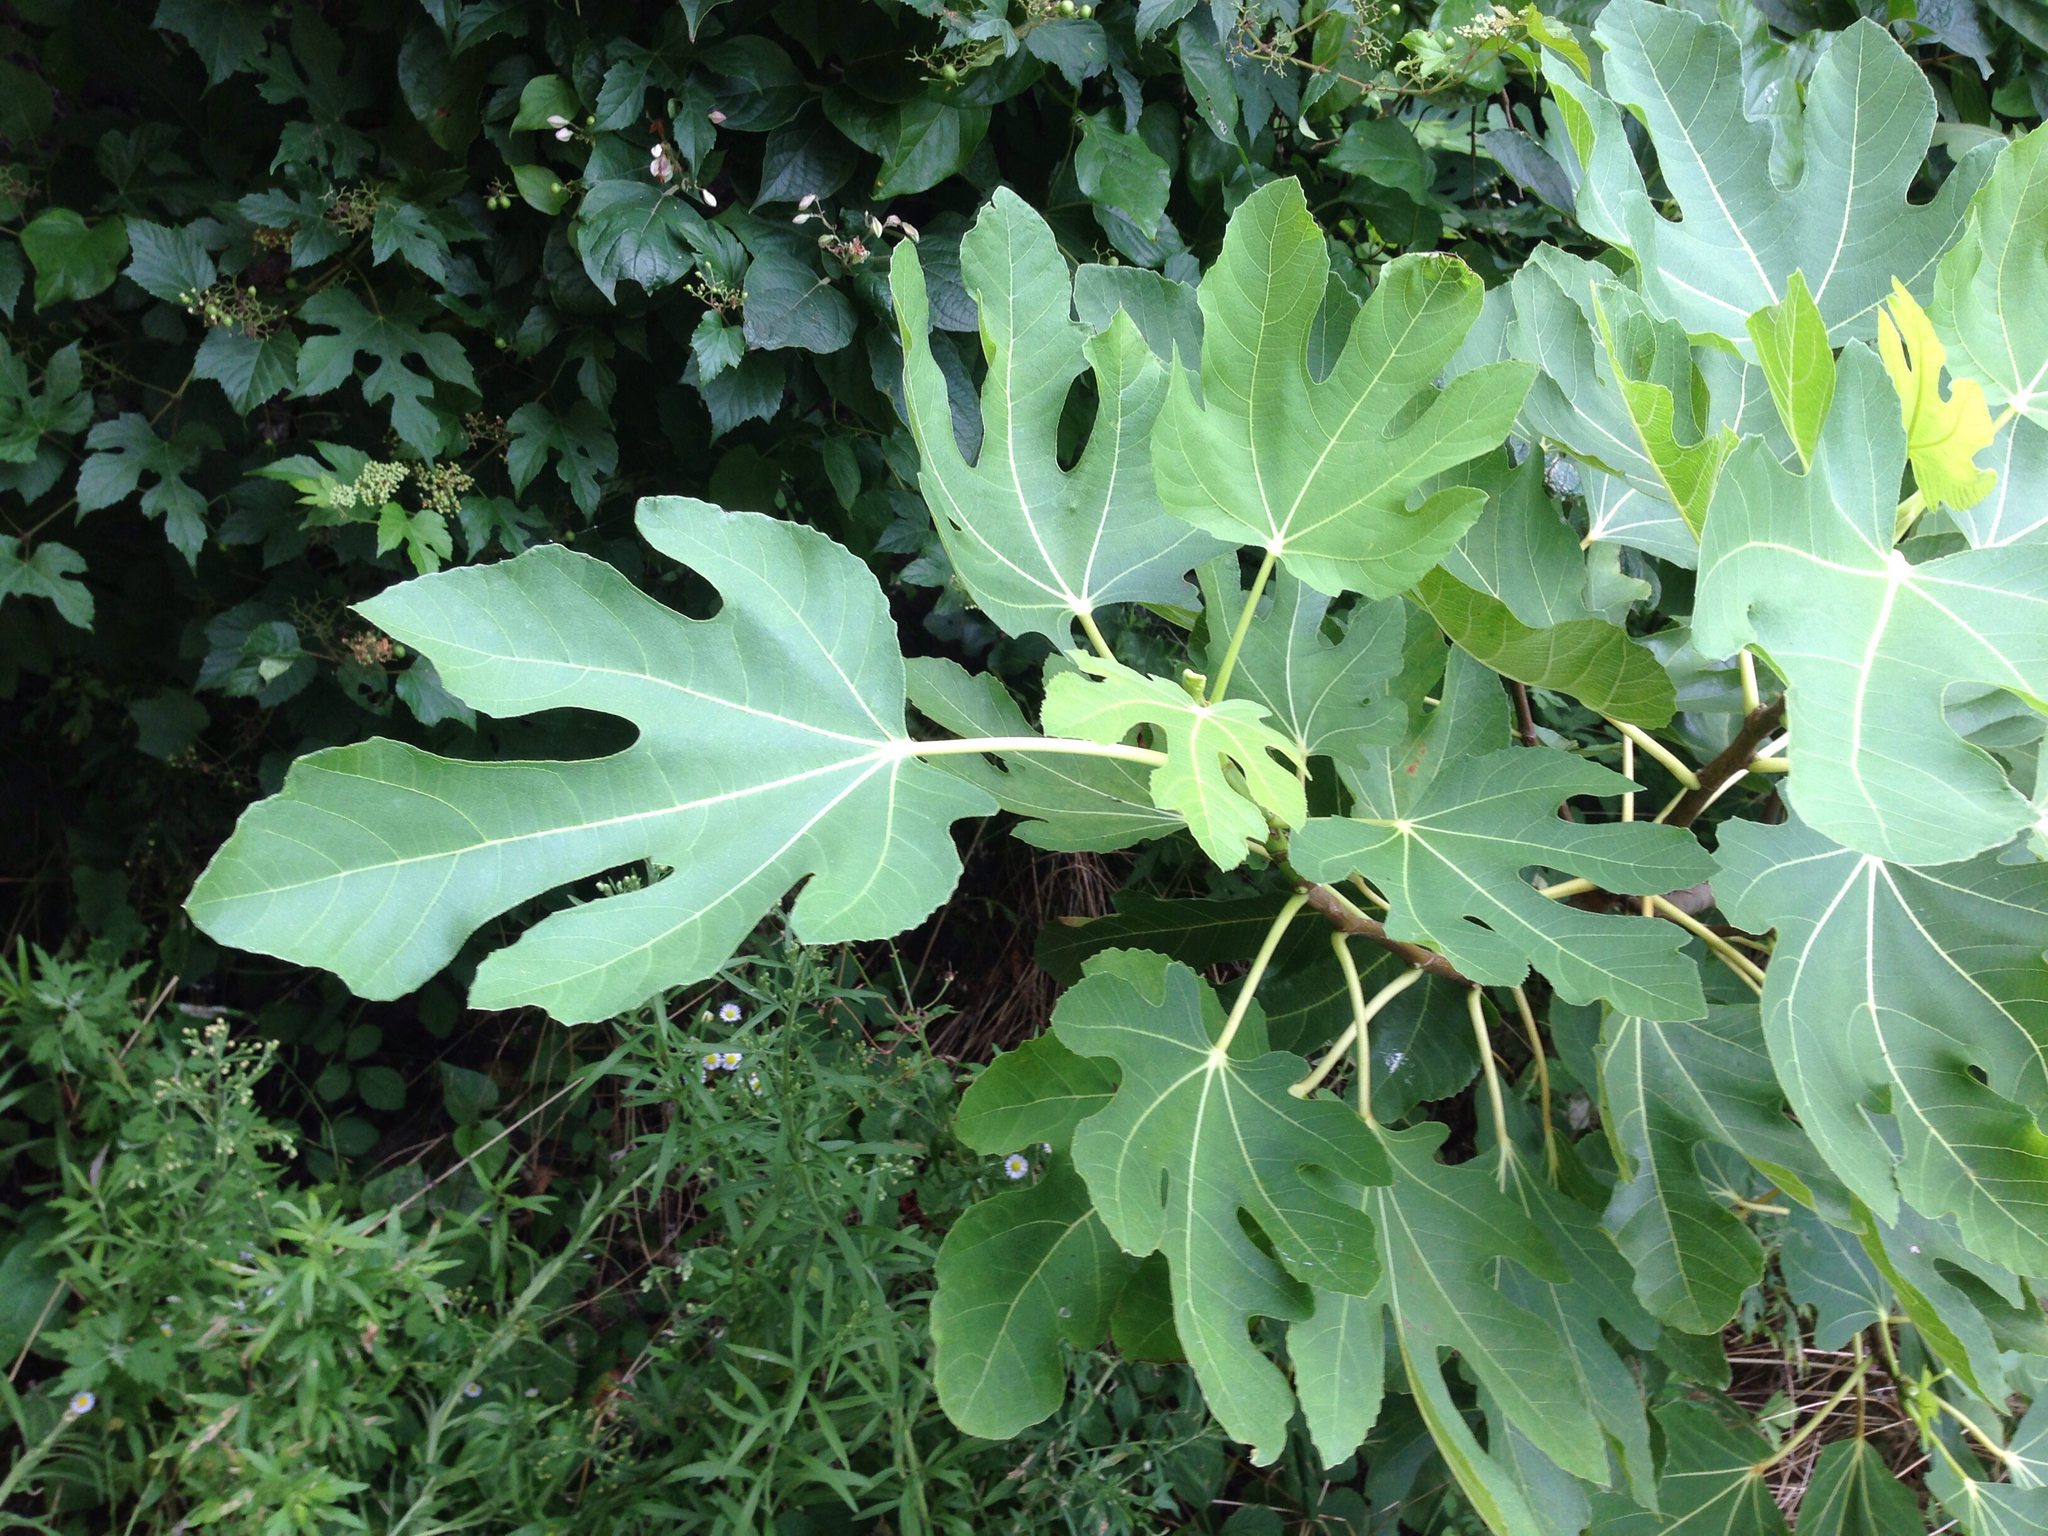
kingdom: Plantae
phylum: Tracheophyta
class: Magnoliopsida
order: Rosales
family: Moraceae
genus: Ficus
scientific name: Ficus carica
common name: Fig
